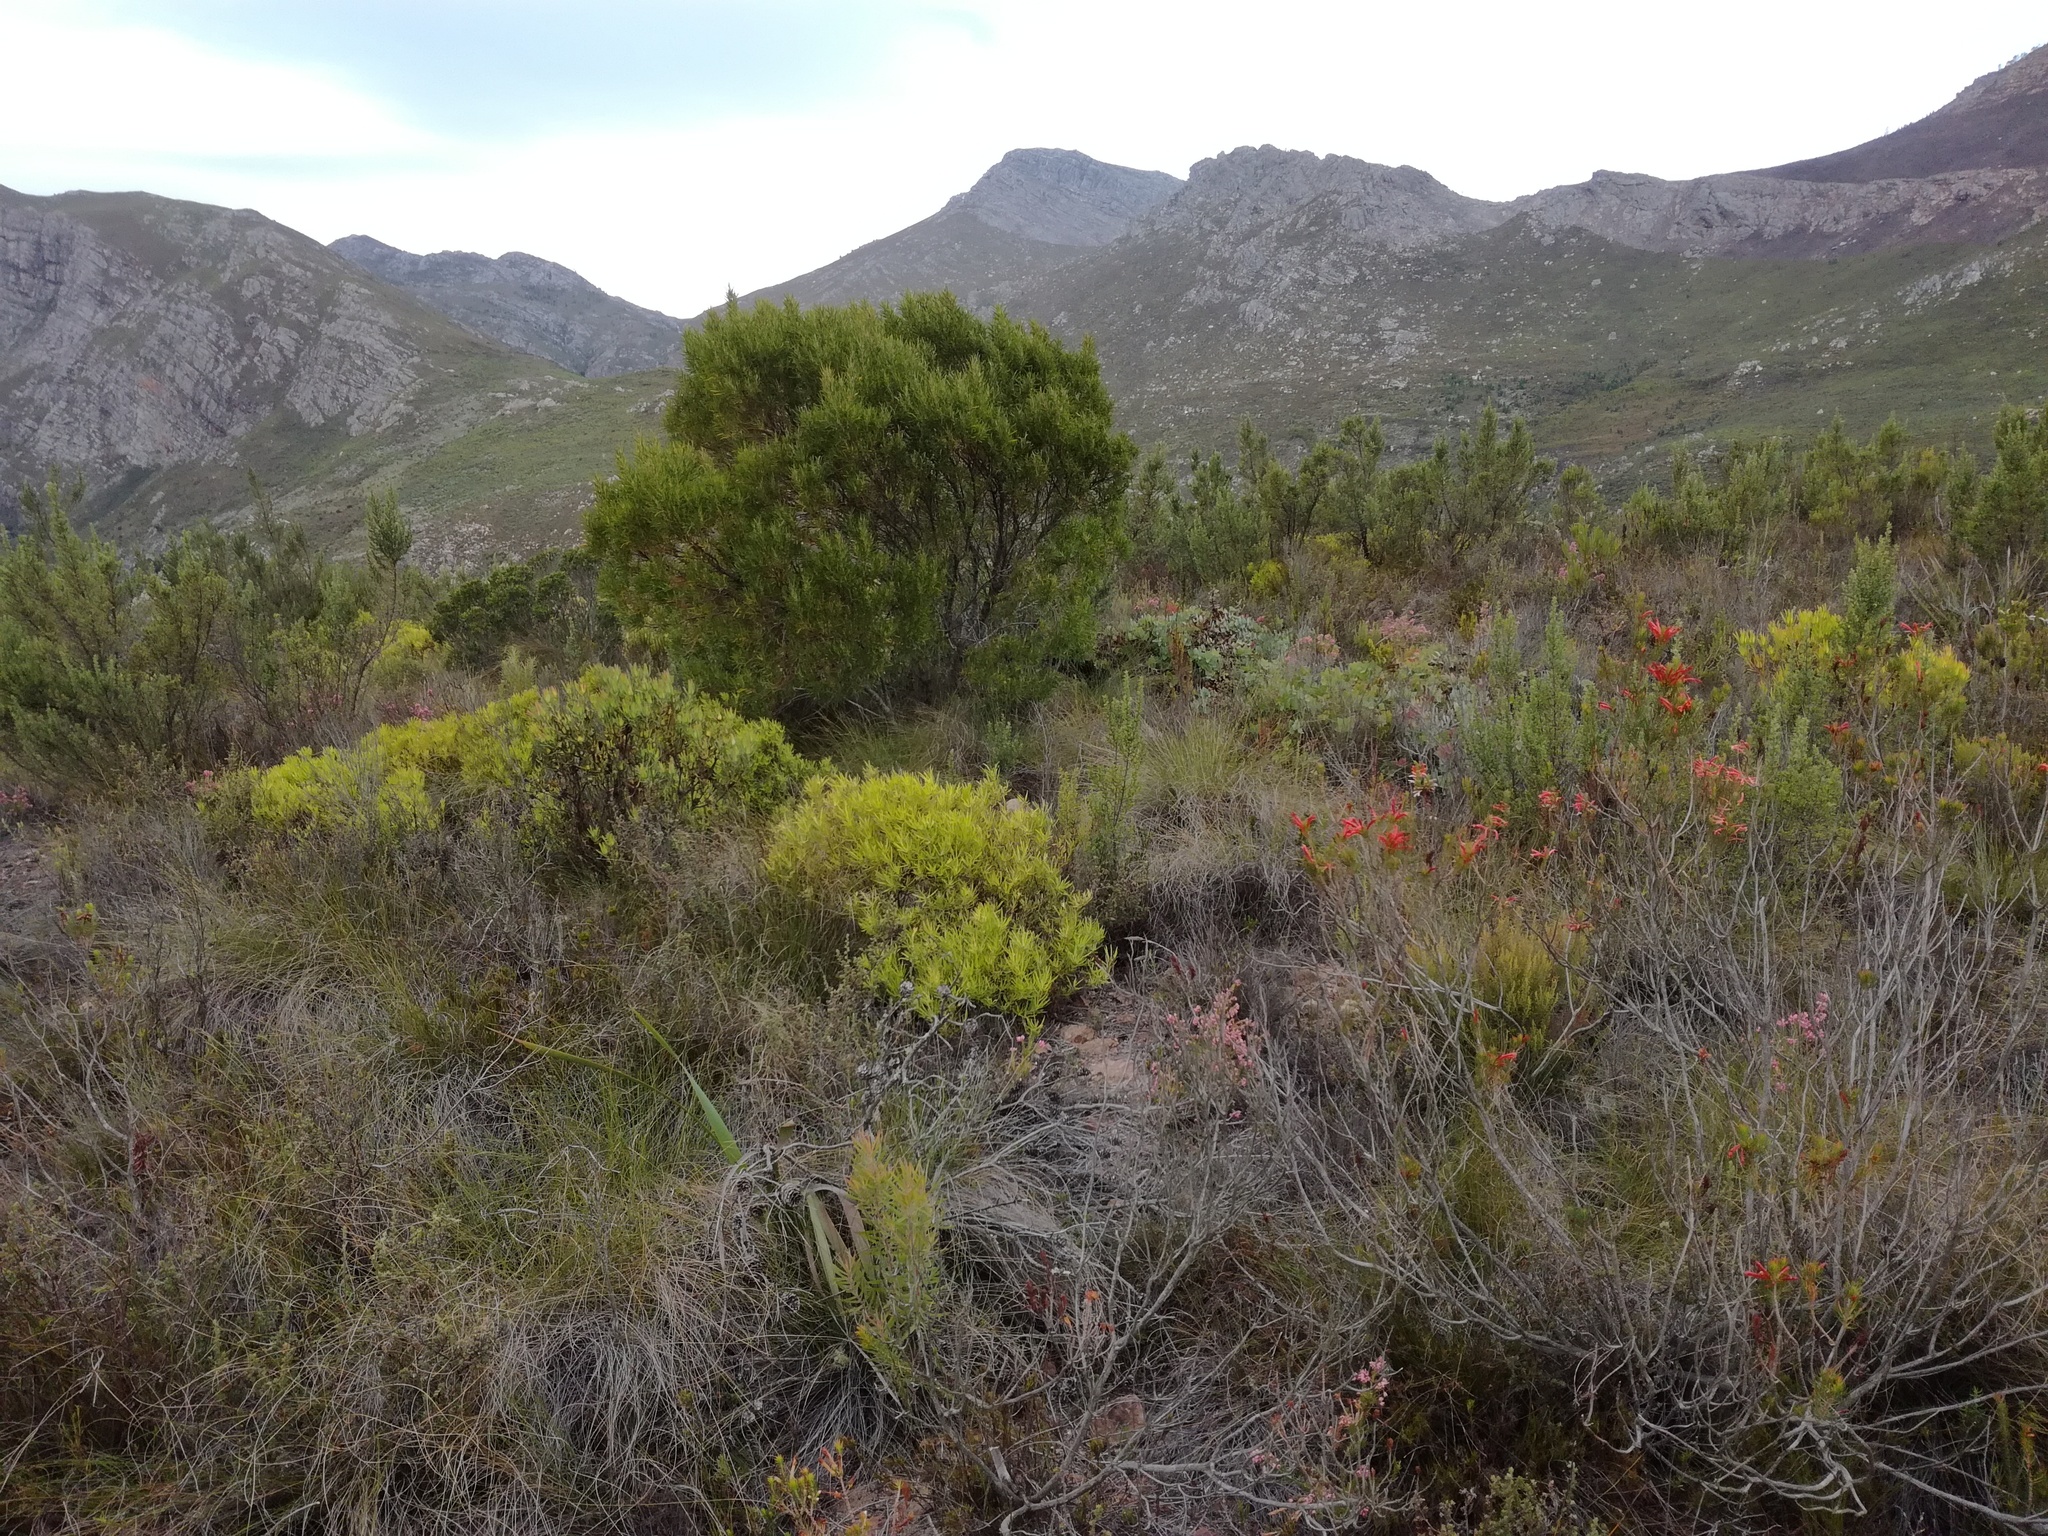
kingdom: Plantae
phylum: Tracheophyta
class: Magnoliopsida
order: Ericales
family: Ericaceae
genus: Erica
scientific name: Erica grandiflora
